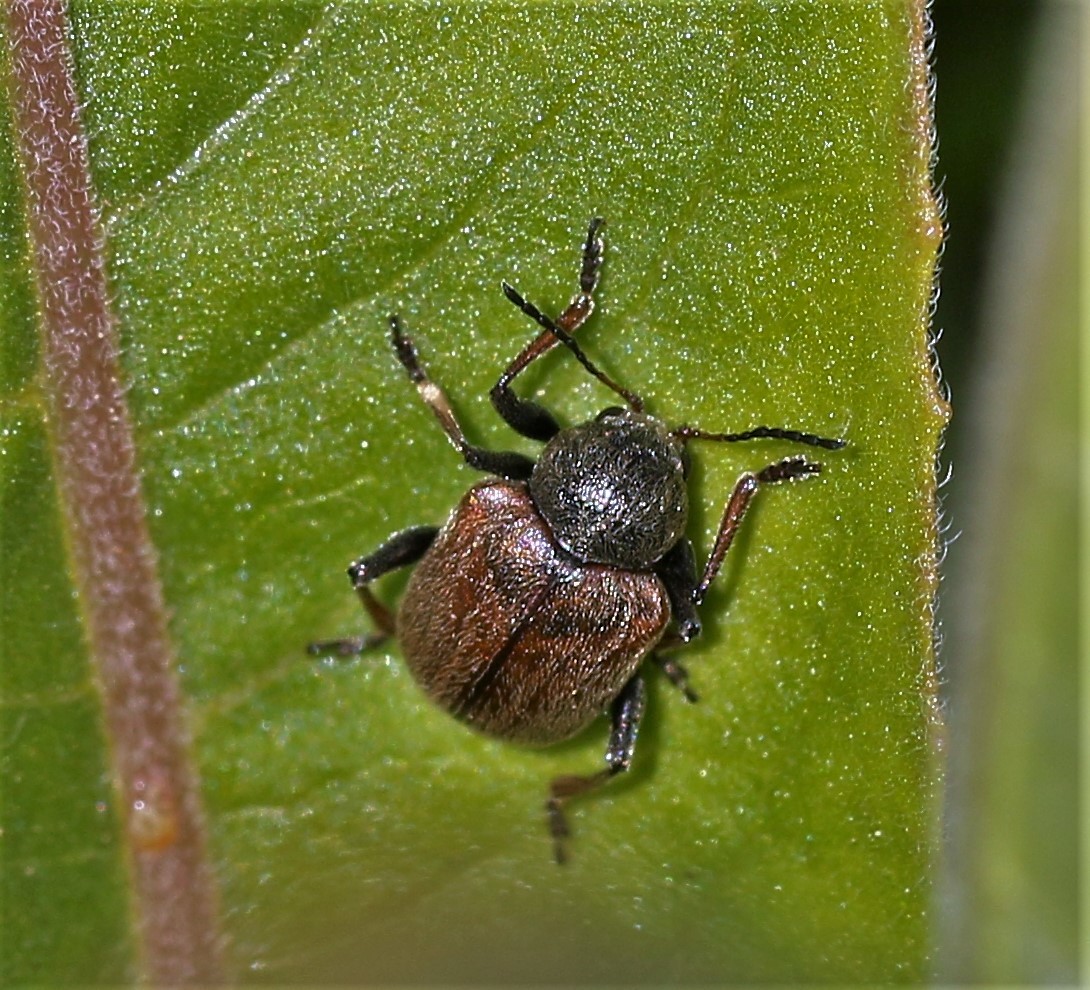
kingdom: Animalia
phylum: Arthropoda
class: Insecta
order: Coleoptera
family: Chrysomelidae
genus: Bromius
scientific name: Bromius obscurus
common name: Western grape rootworm
